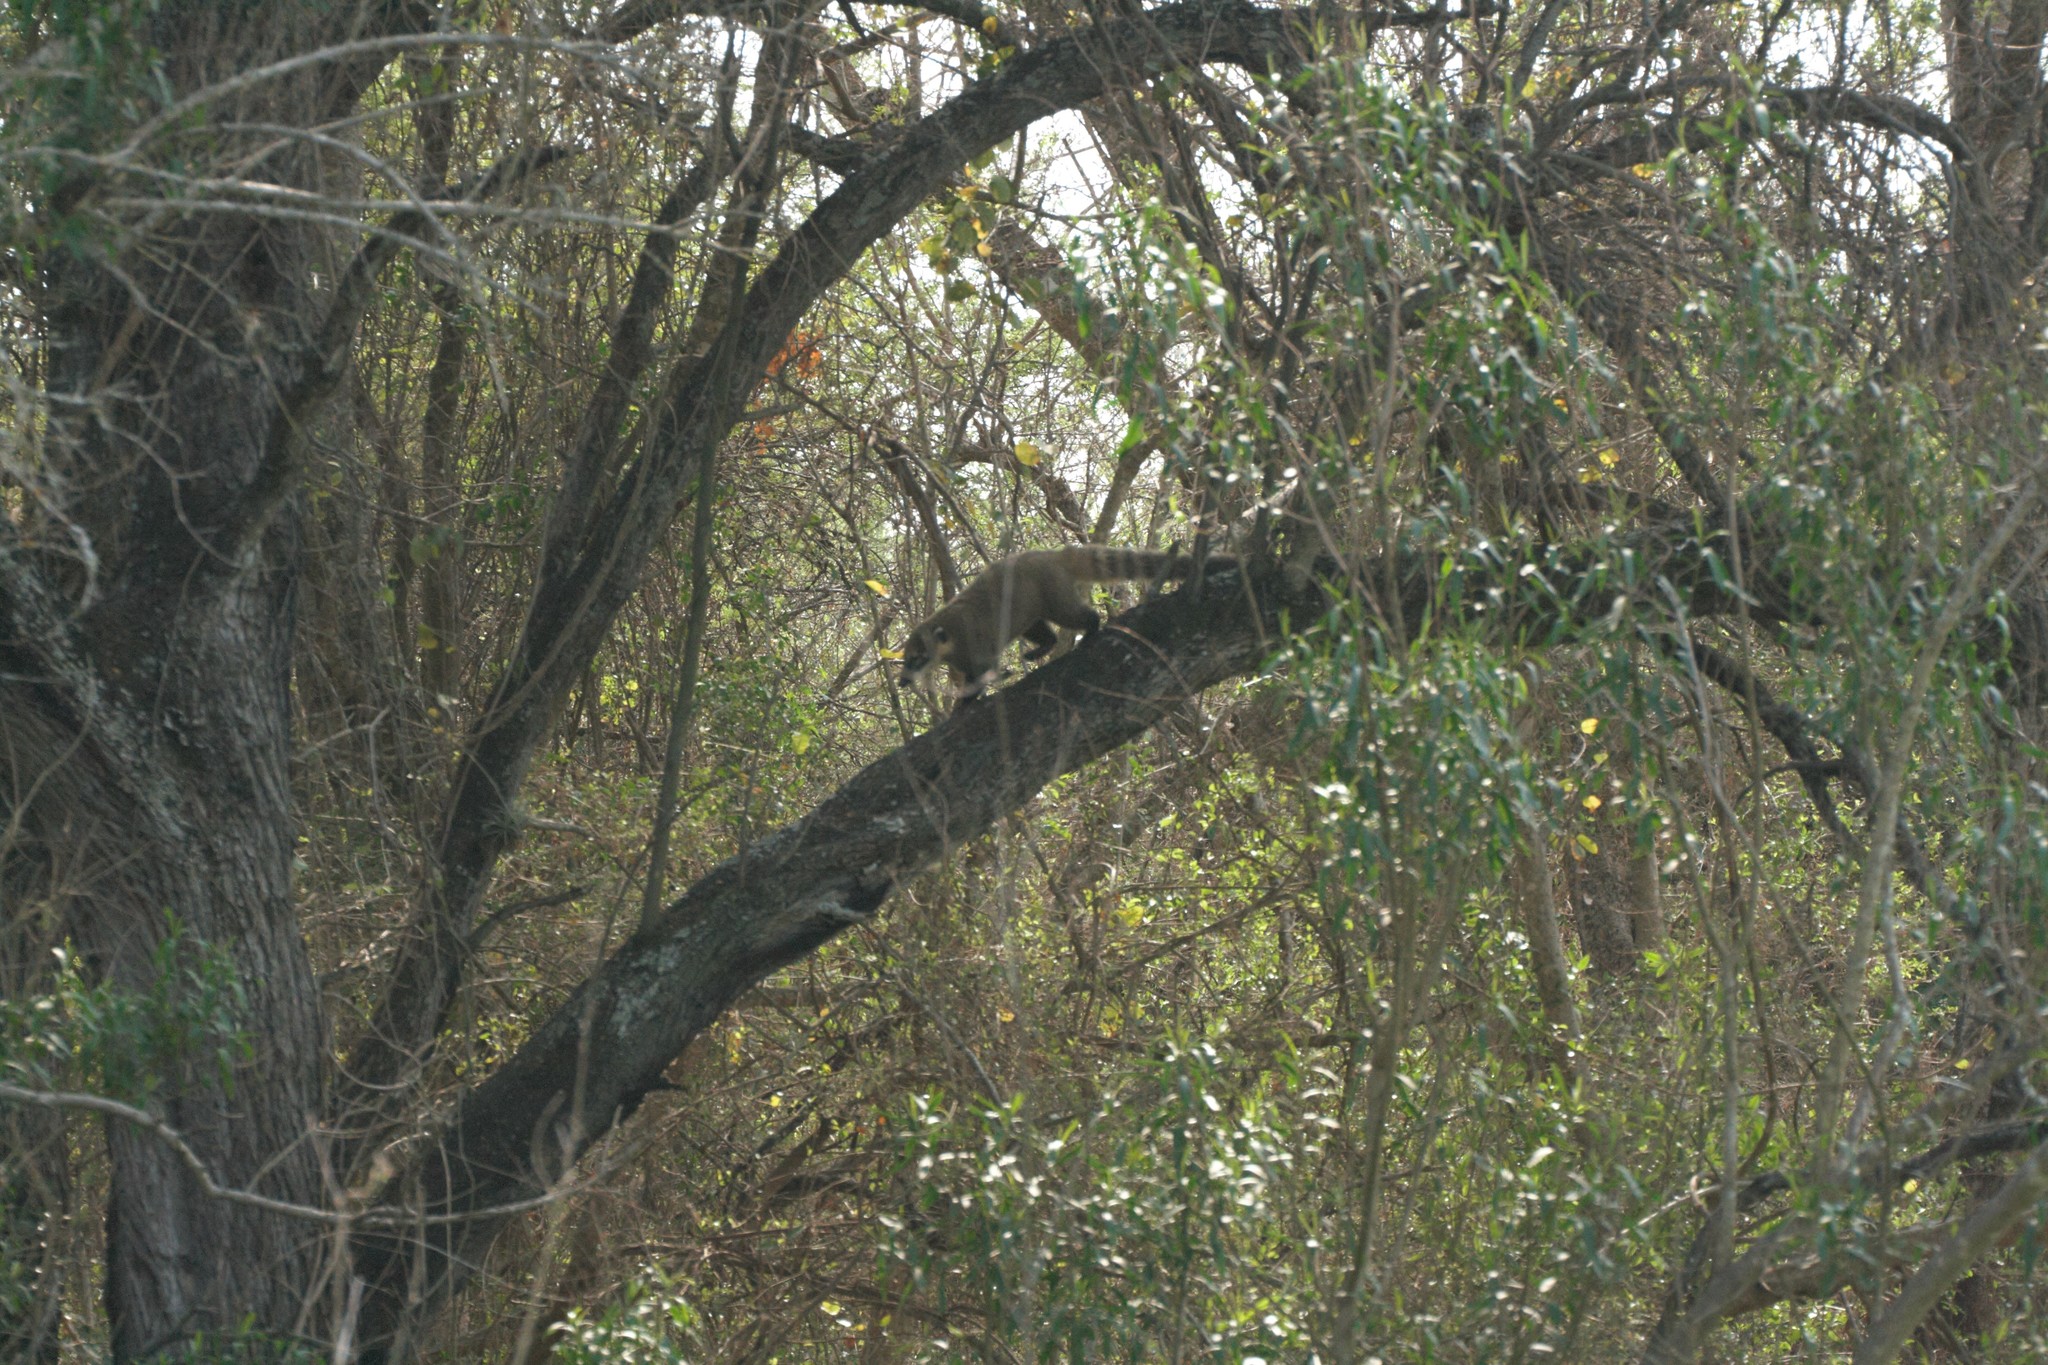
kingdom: Animalia
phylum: Chordata
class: Mammalia
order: Carnivora
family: Procyonidae
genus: Nasua
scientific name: Nasua nasua
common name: South american coati
